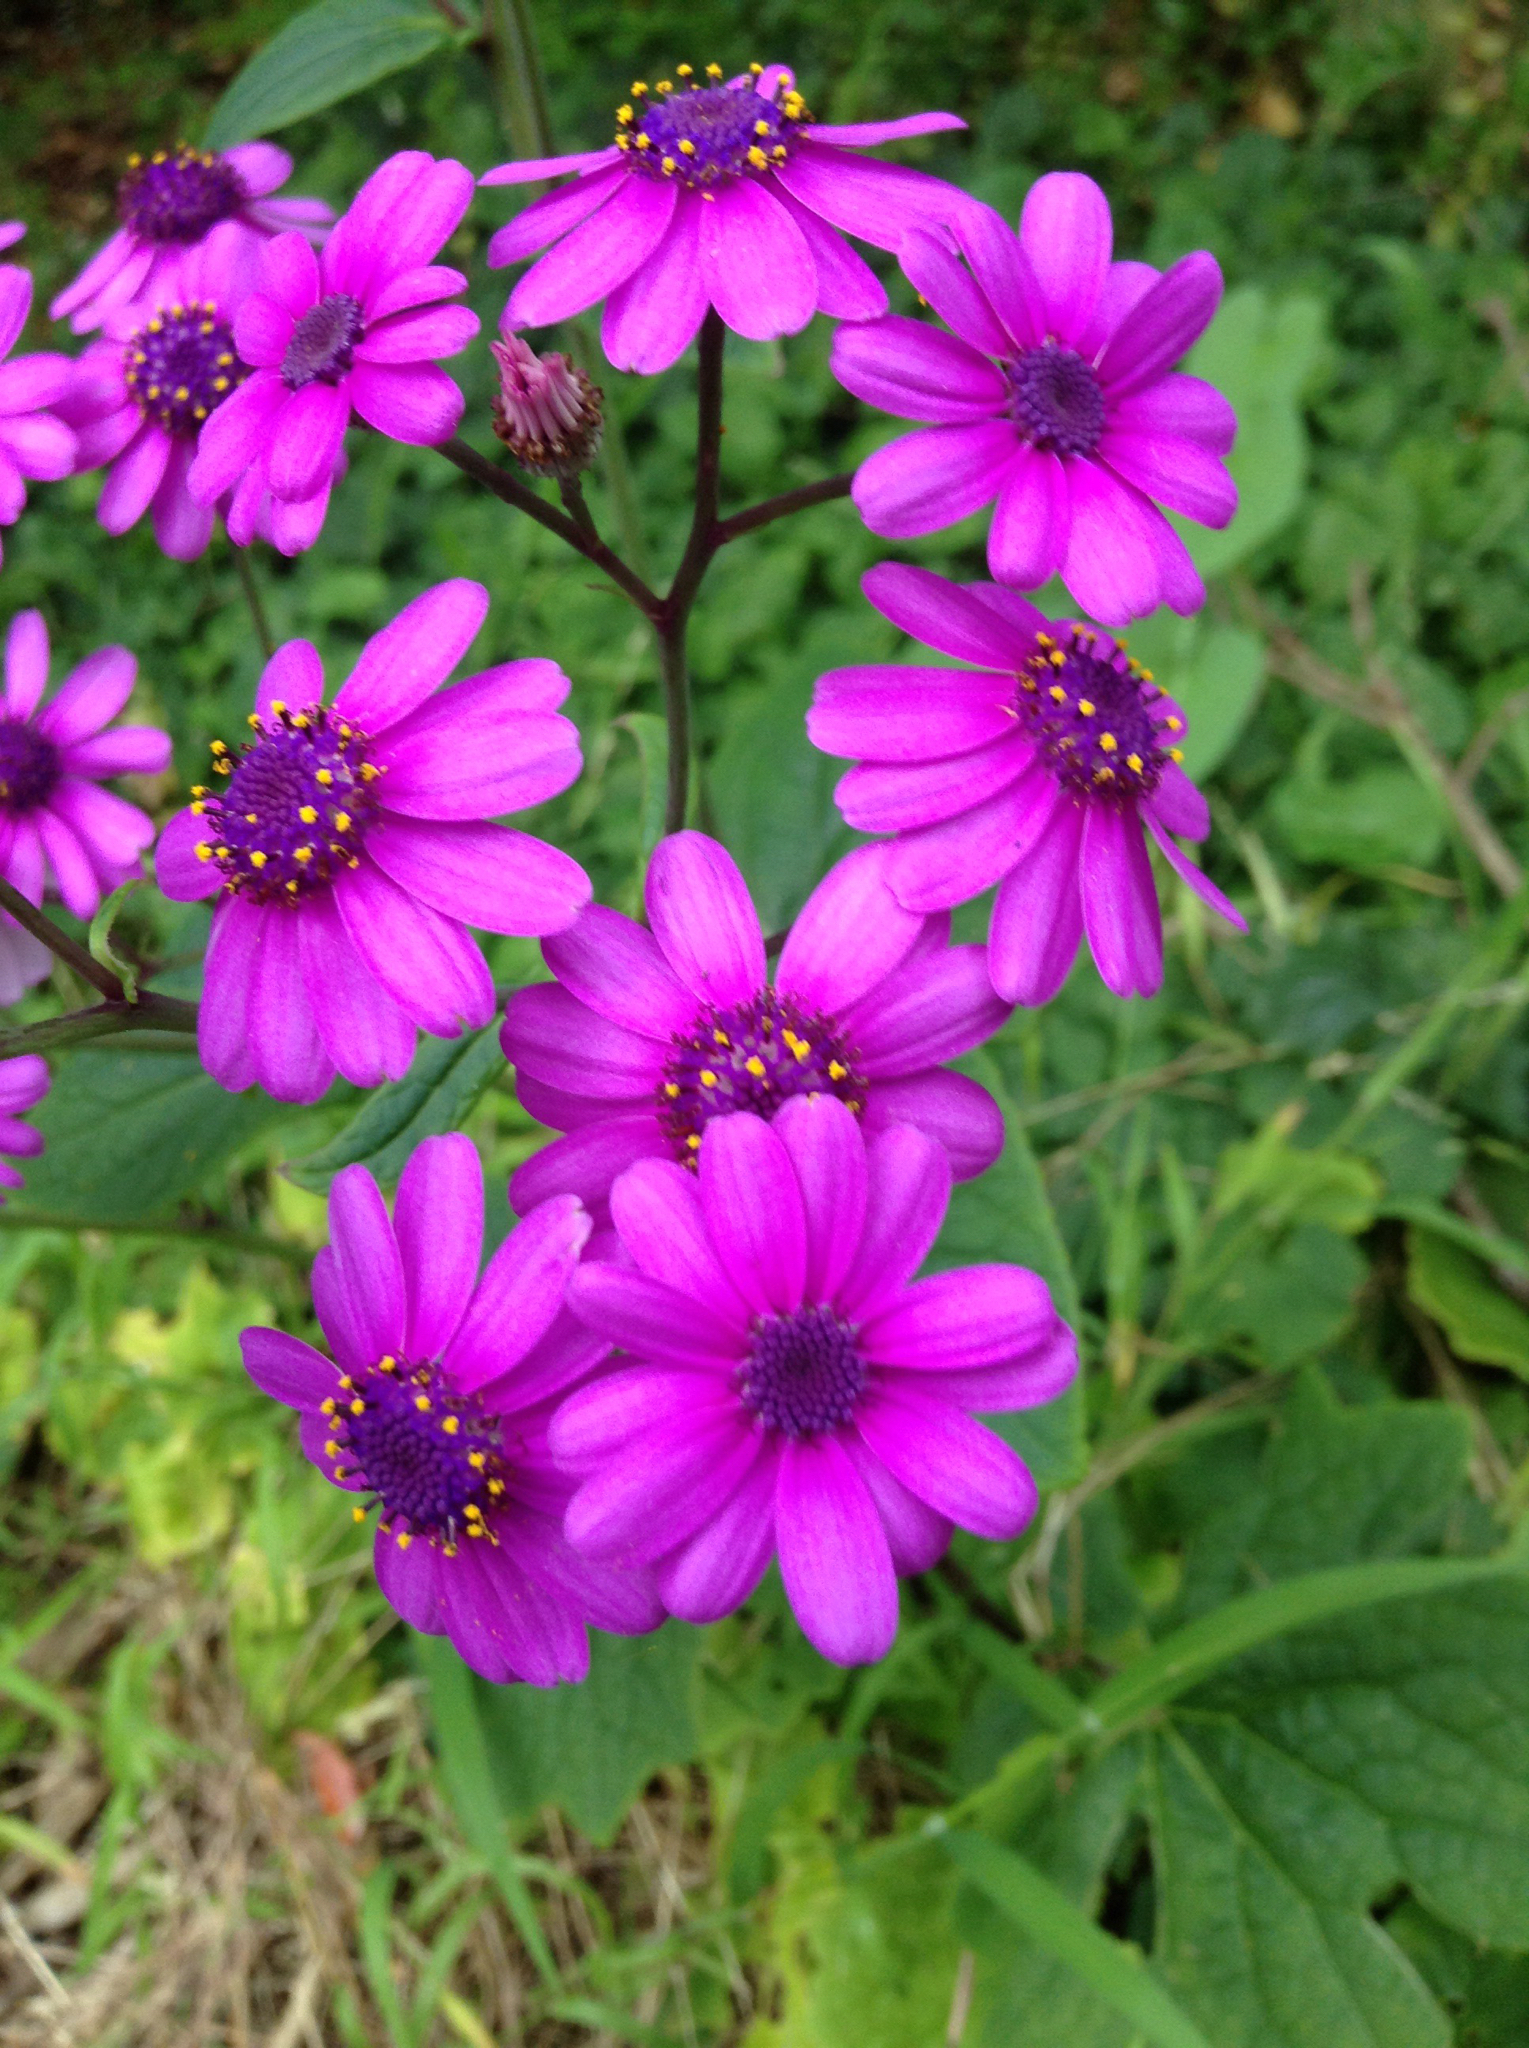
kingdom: Plantae
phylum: Tracheophyta
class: Magnoliopsida
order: Asterales
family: Asteraceae
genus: Pericallis
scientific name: Pericallis hybrida
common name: Cineraria
